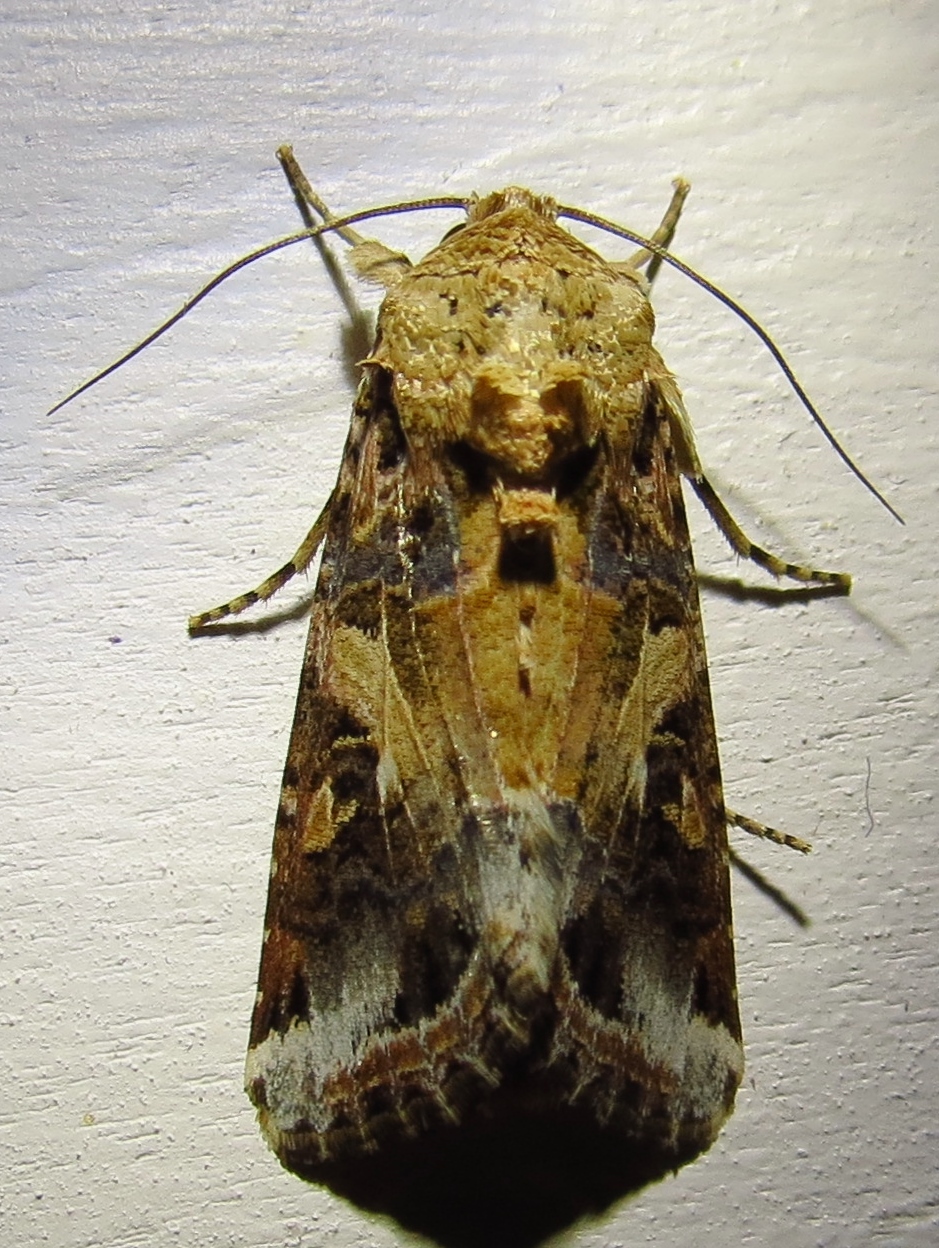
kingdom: Animalia
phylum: Arthropoda
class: Insecta
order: Lepidoptera
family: Noctuidae
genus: Spodoptera
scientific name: Spodoptera ornithogalli
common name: Yellow-striped armyworm
